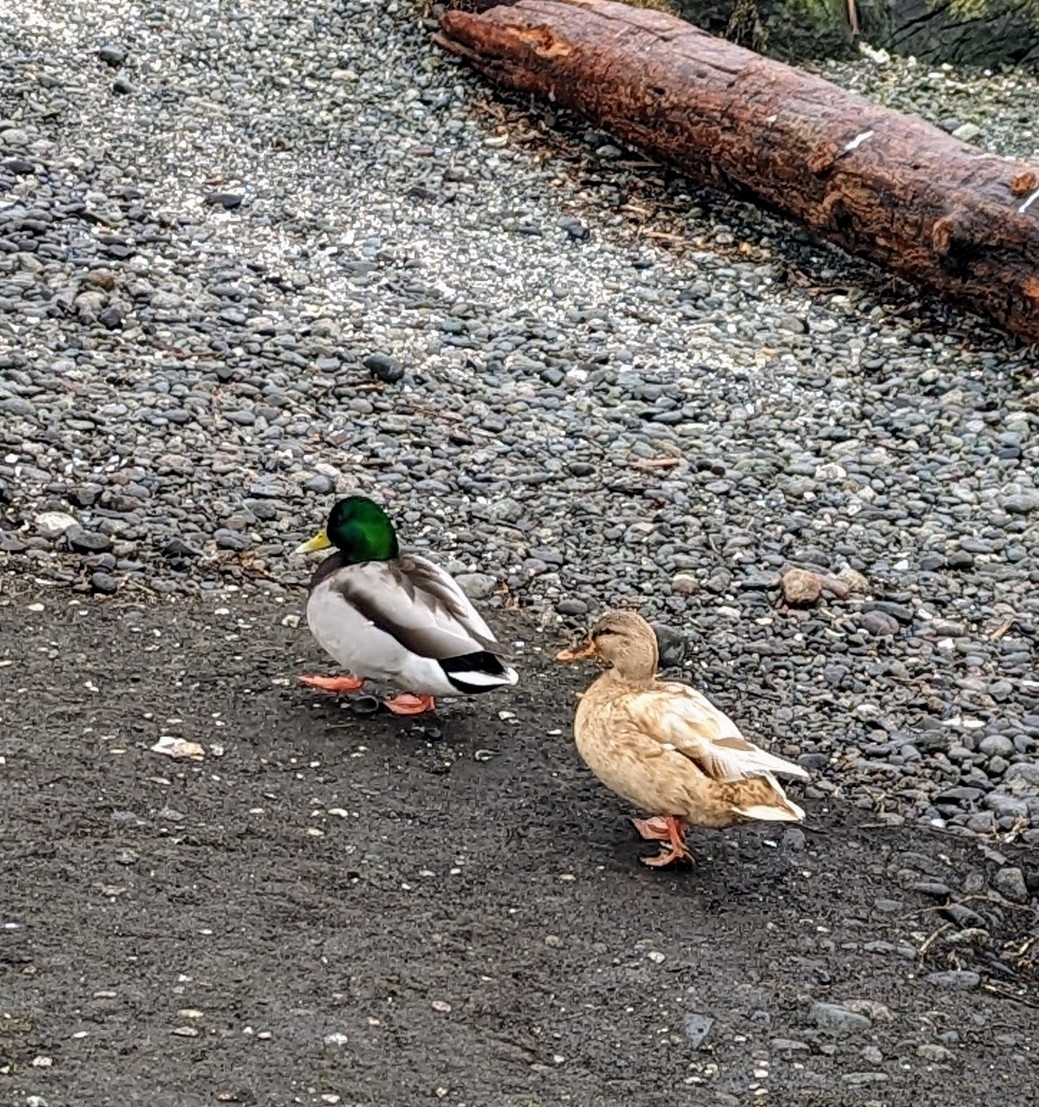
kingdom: Animalia
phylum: Chordata
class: Aves
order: Anseriformes
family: Anatidae
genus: Anas
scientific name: Anas platyrhynchos
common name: Mallard
